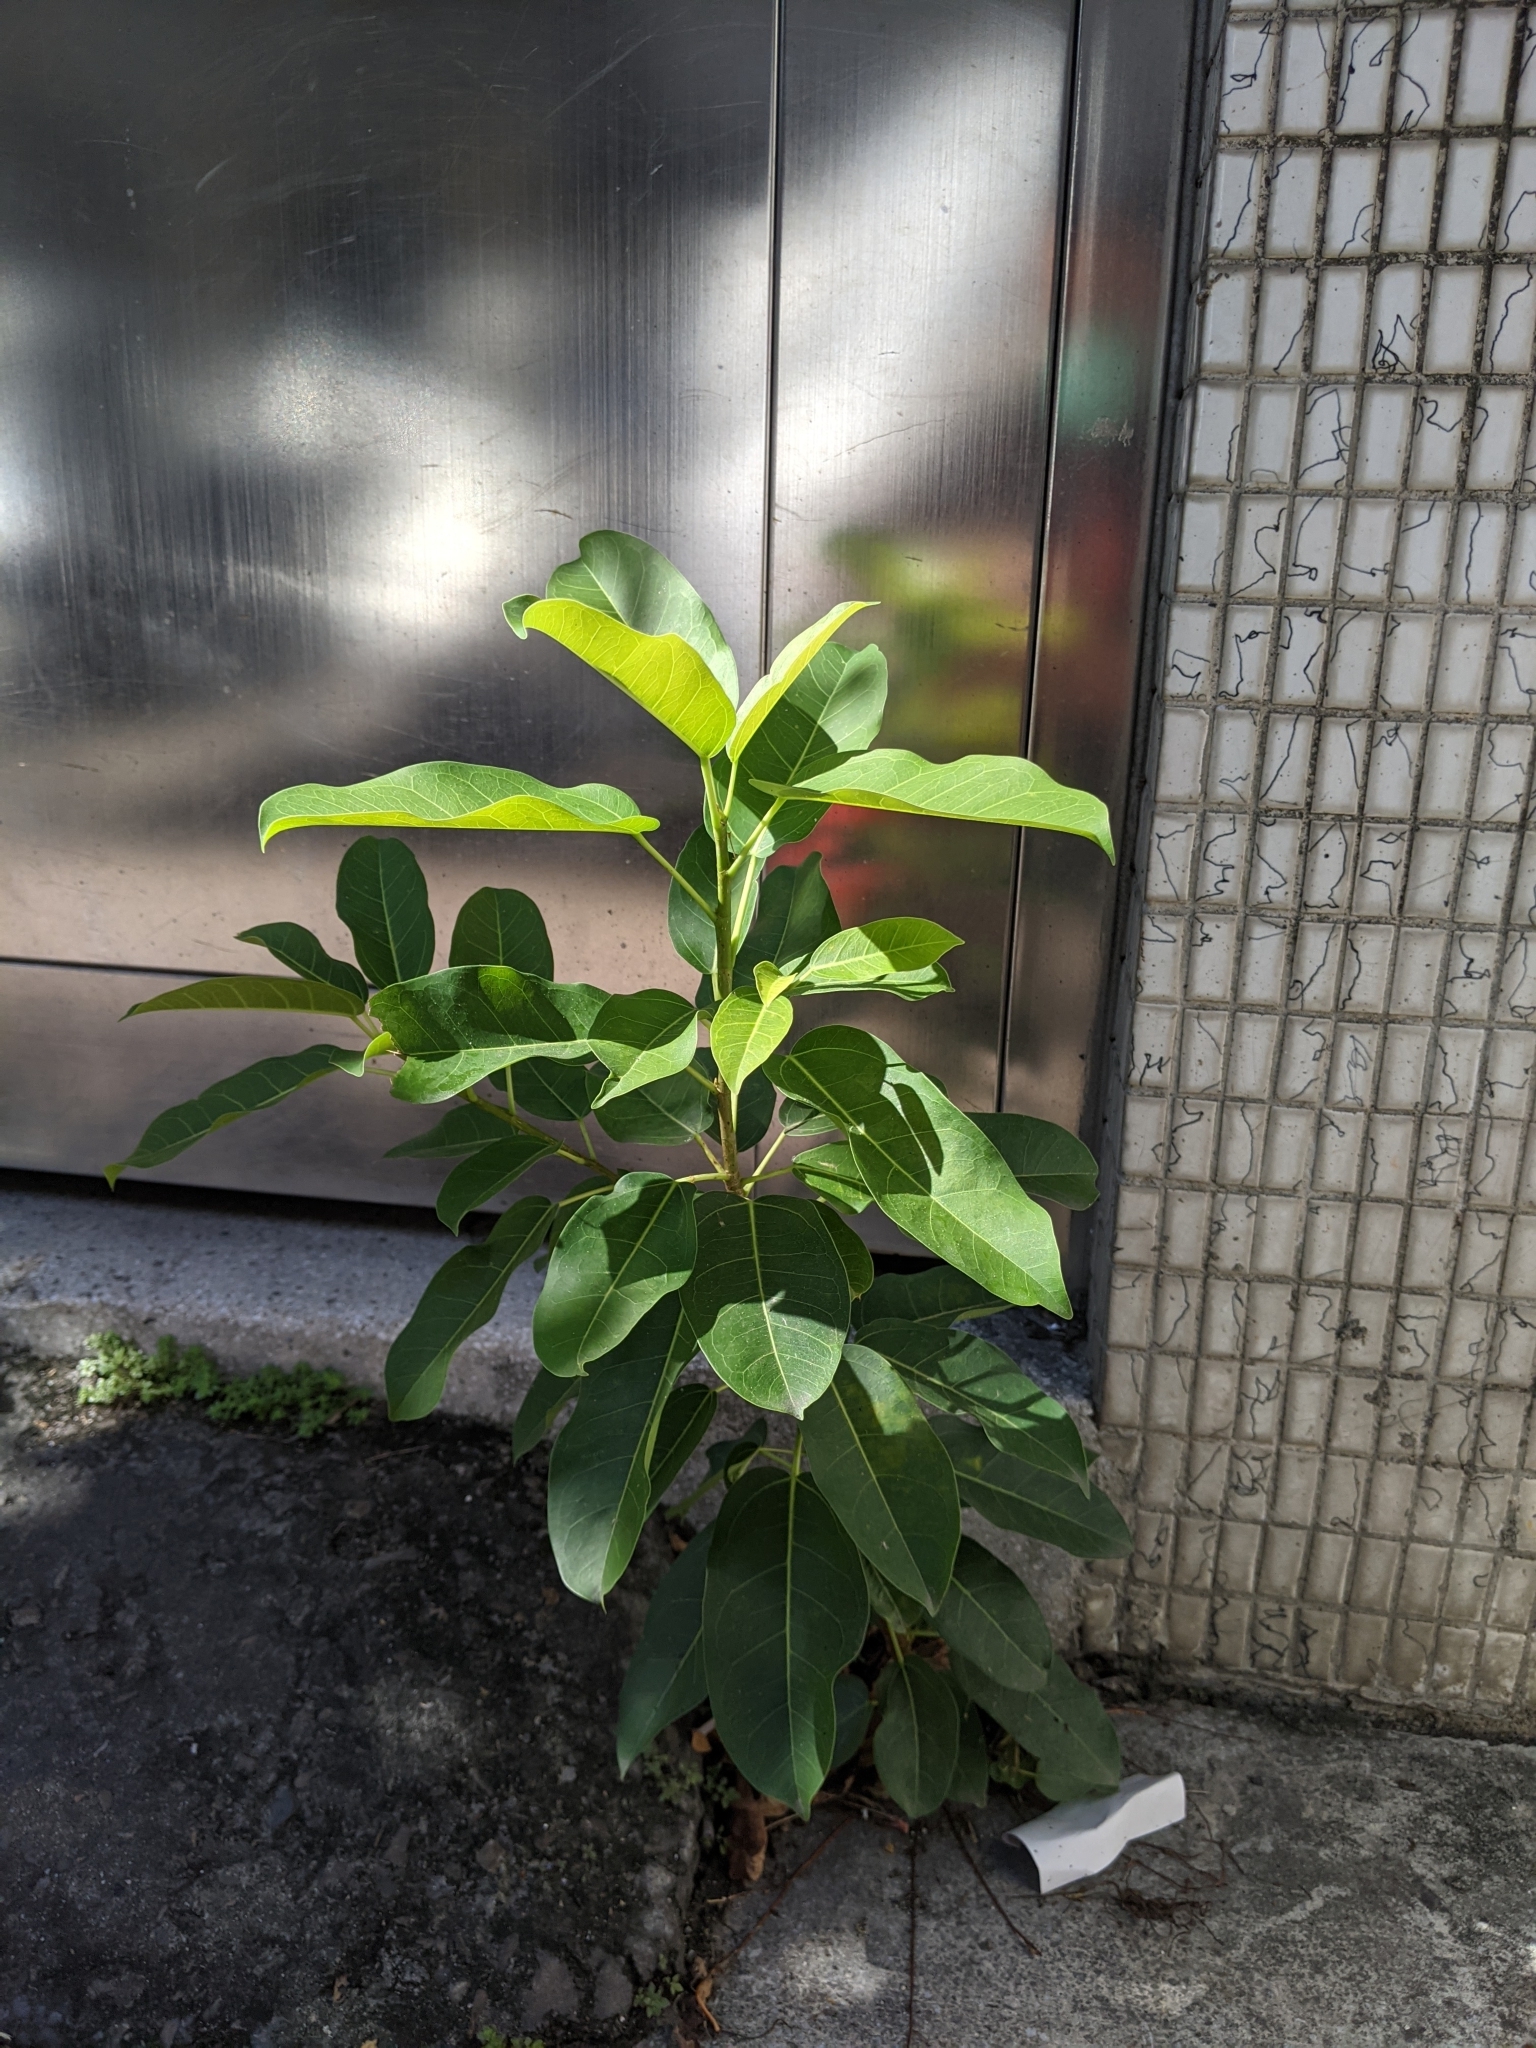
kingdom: Plantae
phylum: Tracheophyta
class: Magnoliopsida
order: Rosales
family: Moraceae
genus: Ficus
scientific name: Ficus subpisocarpa
